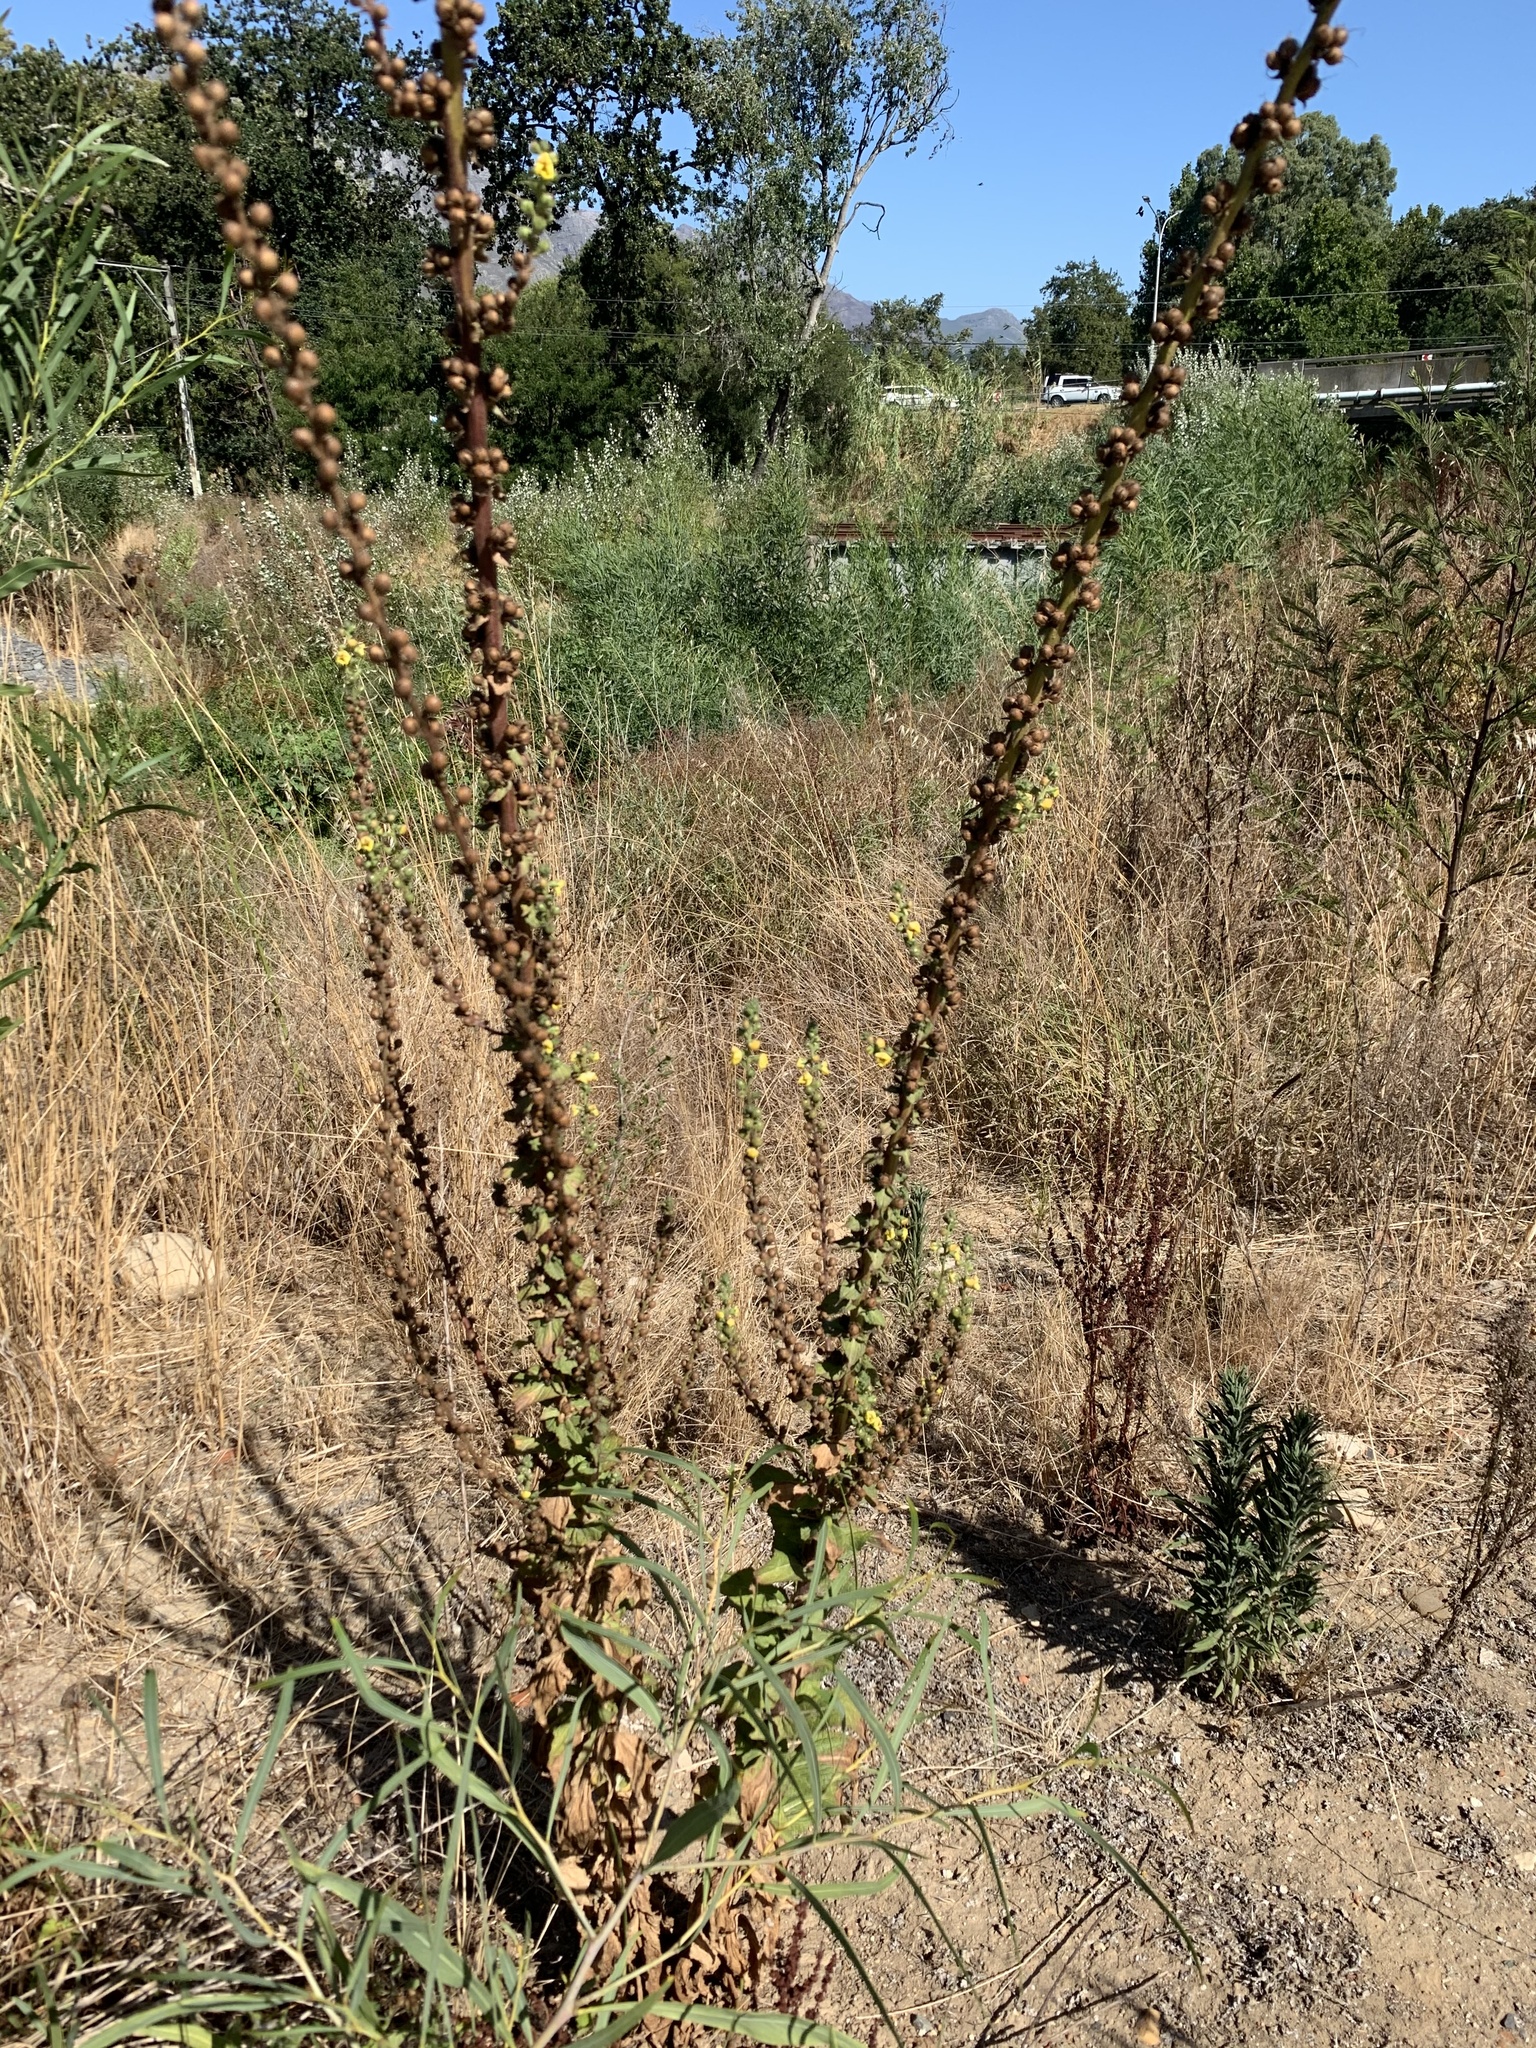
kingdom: Plantae
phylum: Tracheophyta
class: Magnoliopsida
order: Lamiales
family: Scrophulariaceae
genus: Verbascum
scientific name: Verbascum virgatum
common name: Twiggy mullein
